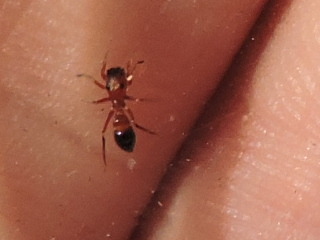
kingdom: Animalia
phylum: Arthropoda
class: Arachnida
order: Araneae
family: Salticidae
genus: Peckhamia
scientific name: Peckhamia
